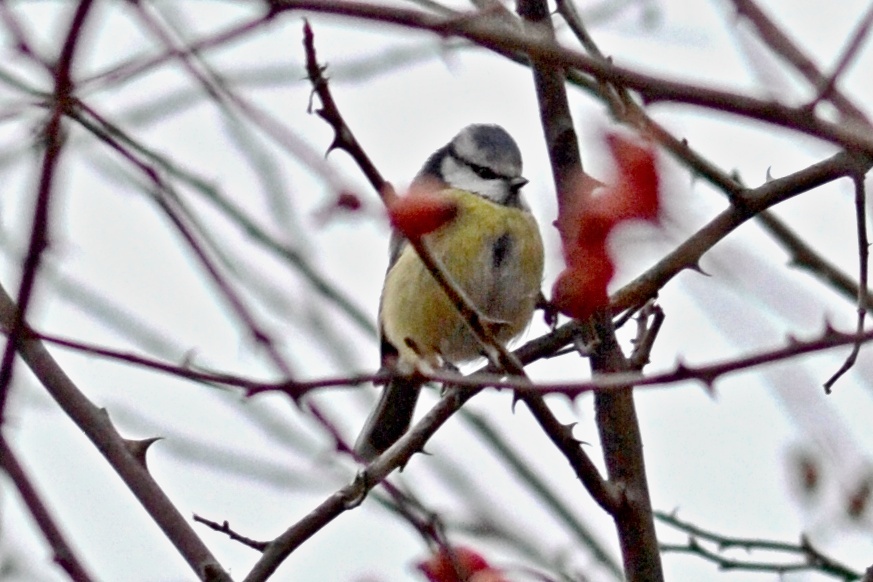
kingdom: Animalia
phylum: Chordata
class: Aves
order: Passeriformes
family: Paridae
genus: Cyanistes
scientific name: Cyanistes caeruleus
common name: Eurasian blue tit
